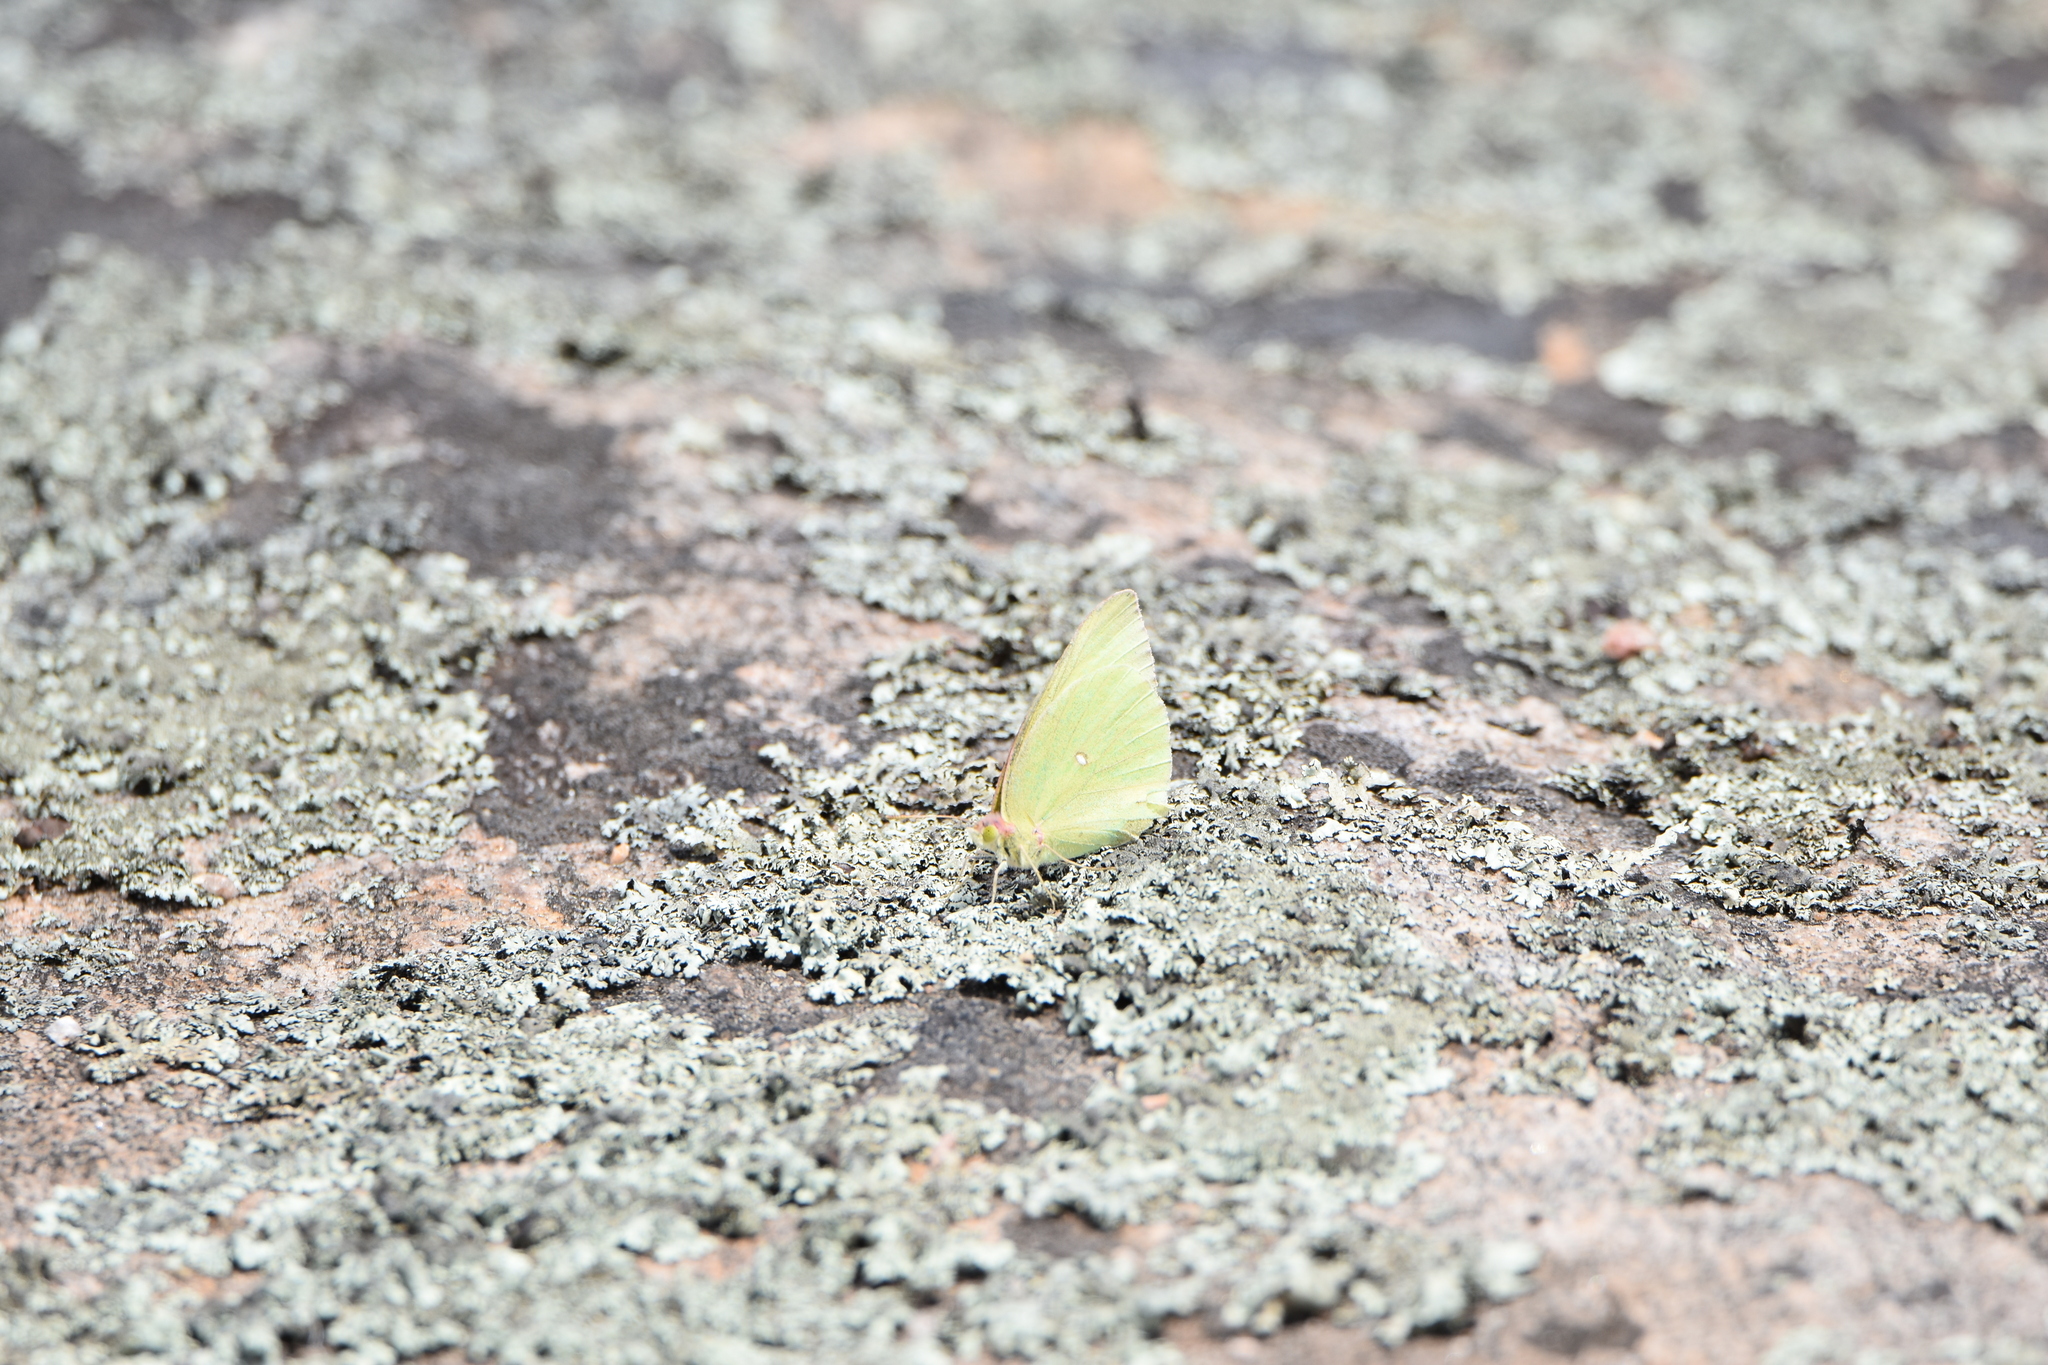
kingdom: Animalia
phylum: Arthropoda
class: Insecta
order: Lepidoptera
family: Pieridae
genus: Colias
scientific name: Colias interior
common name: Pink-edged sulphur
